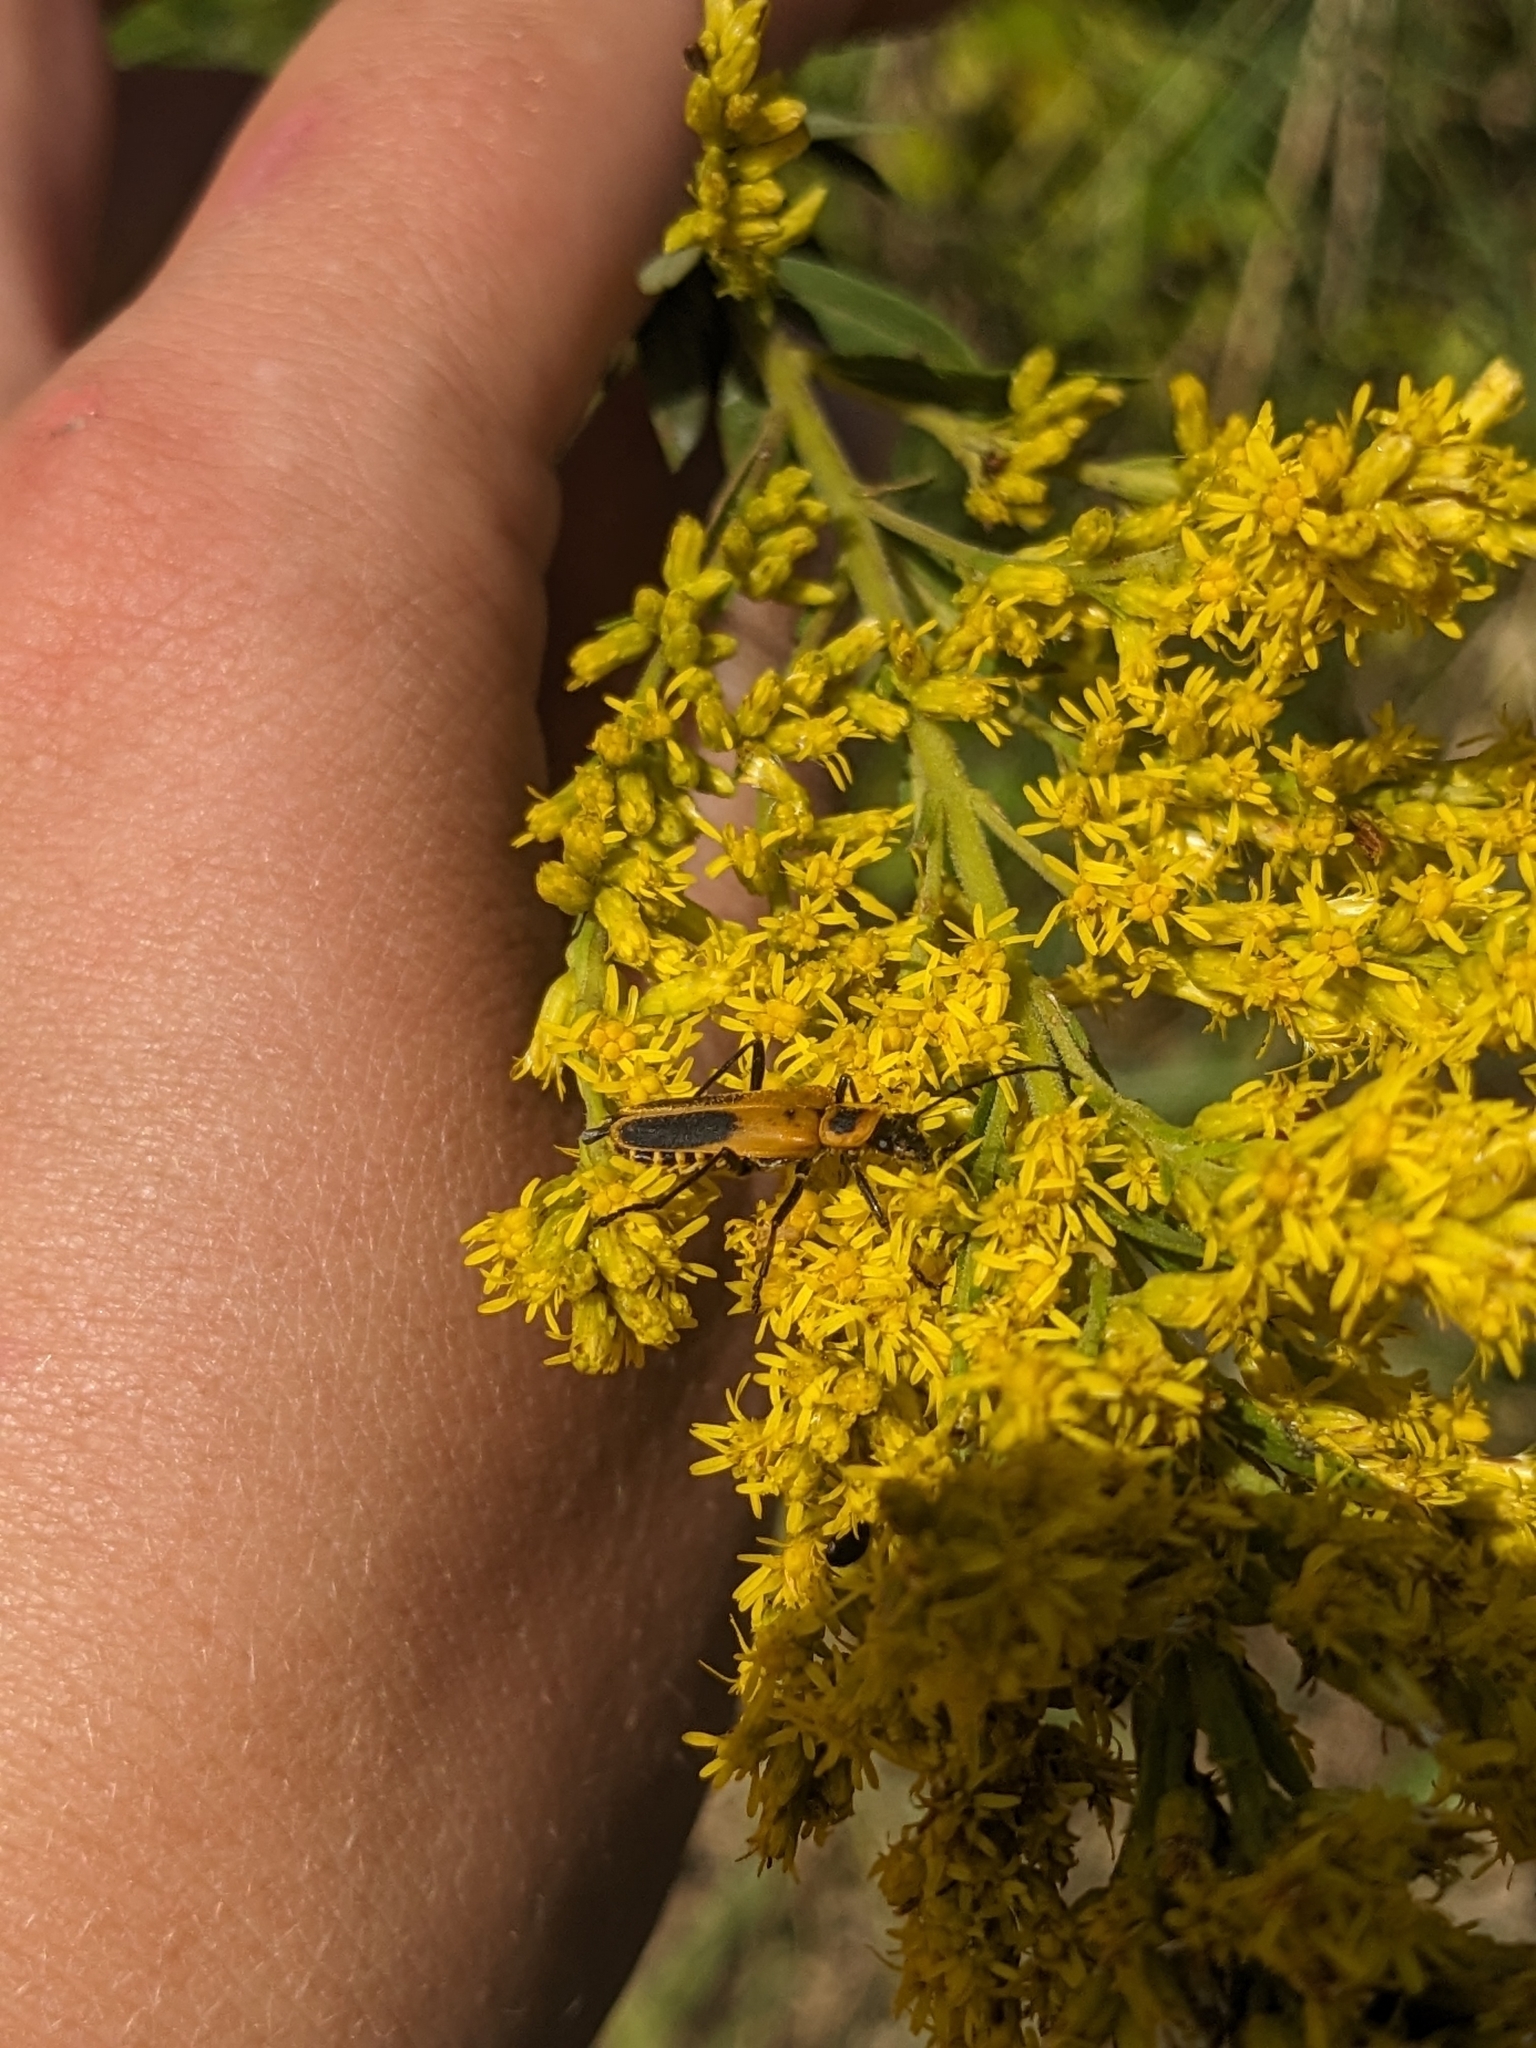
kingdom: Animalia
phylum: Arthropoda
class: Insecta
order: Coleoptera
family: Cantharidae
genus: Chauliognathus
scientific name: Chauliognathus pensylvanicus
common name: Goldenrod soldier beetle
